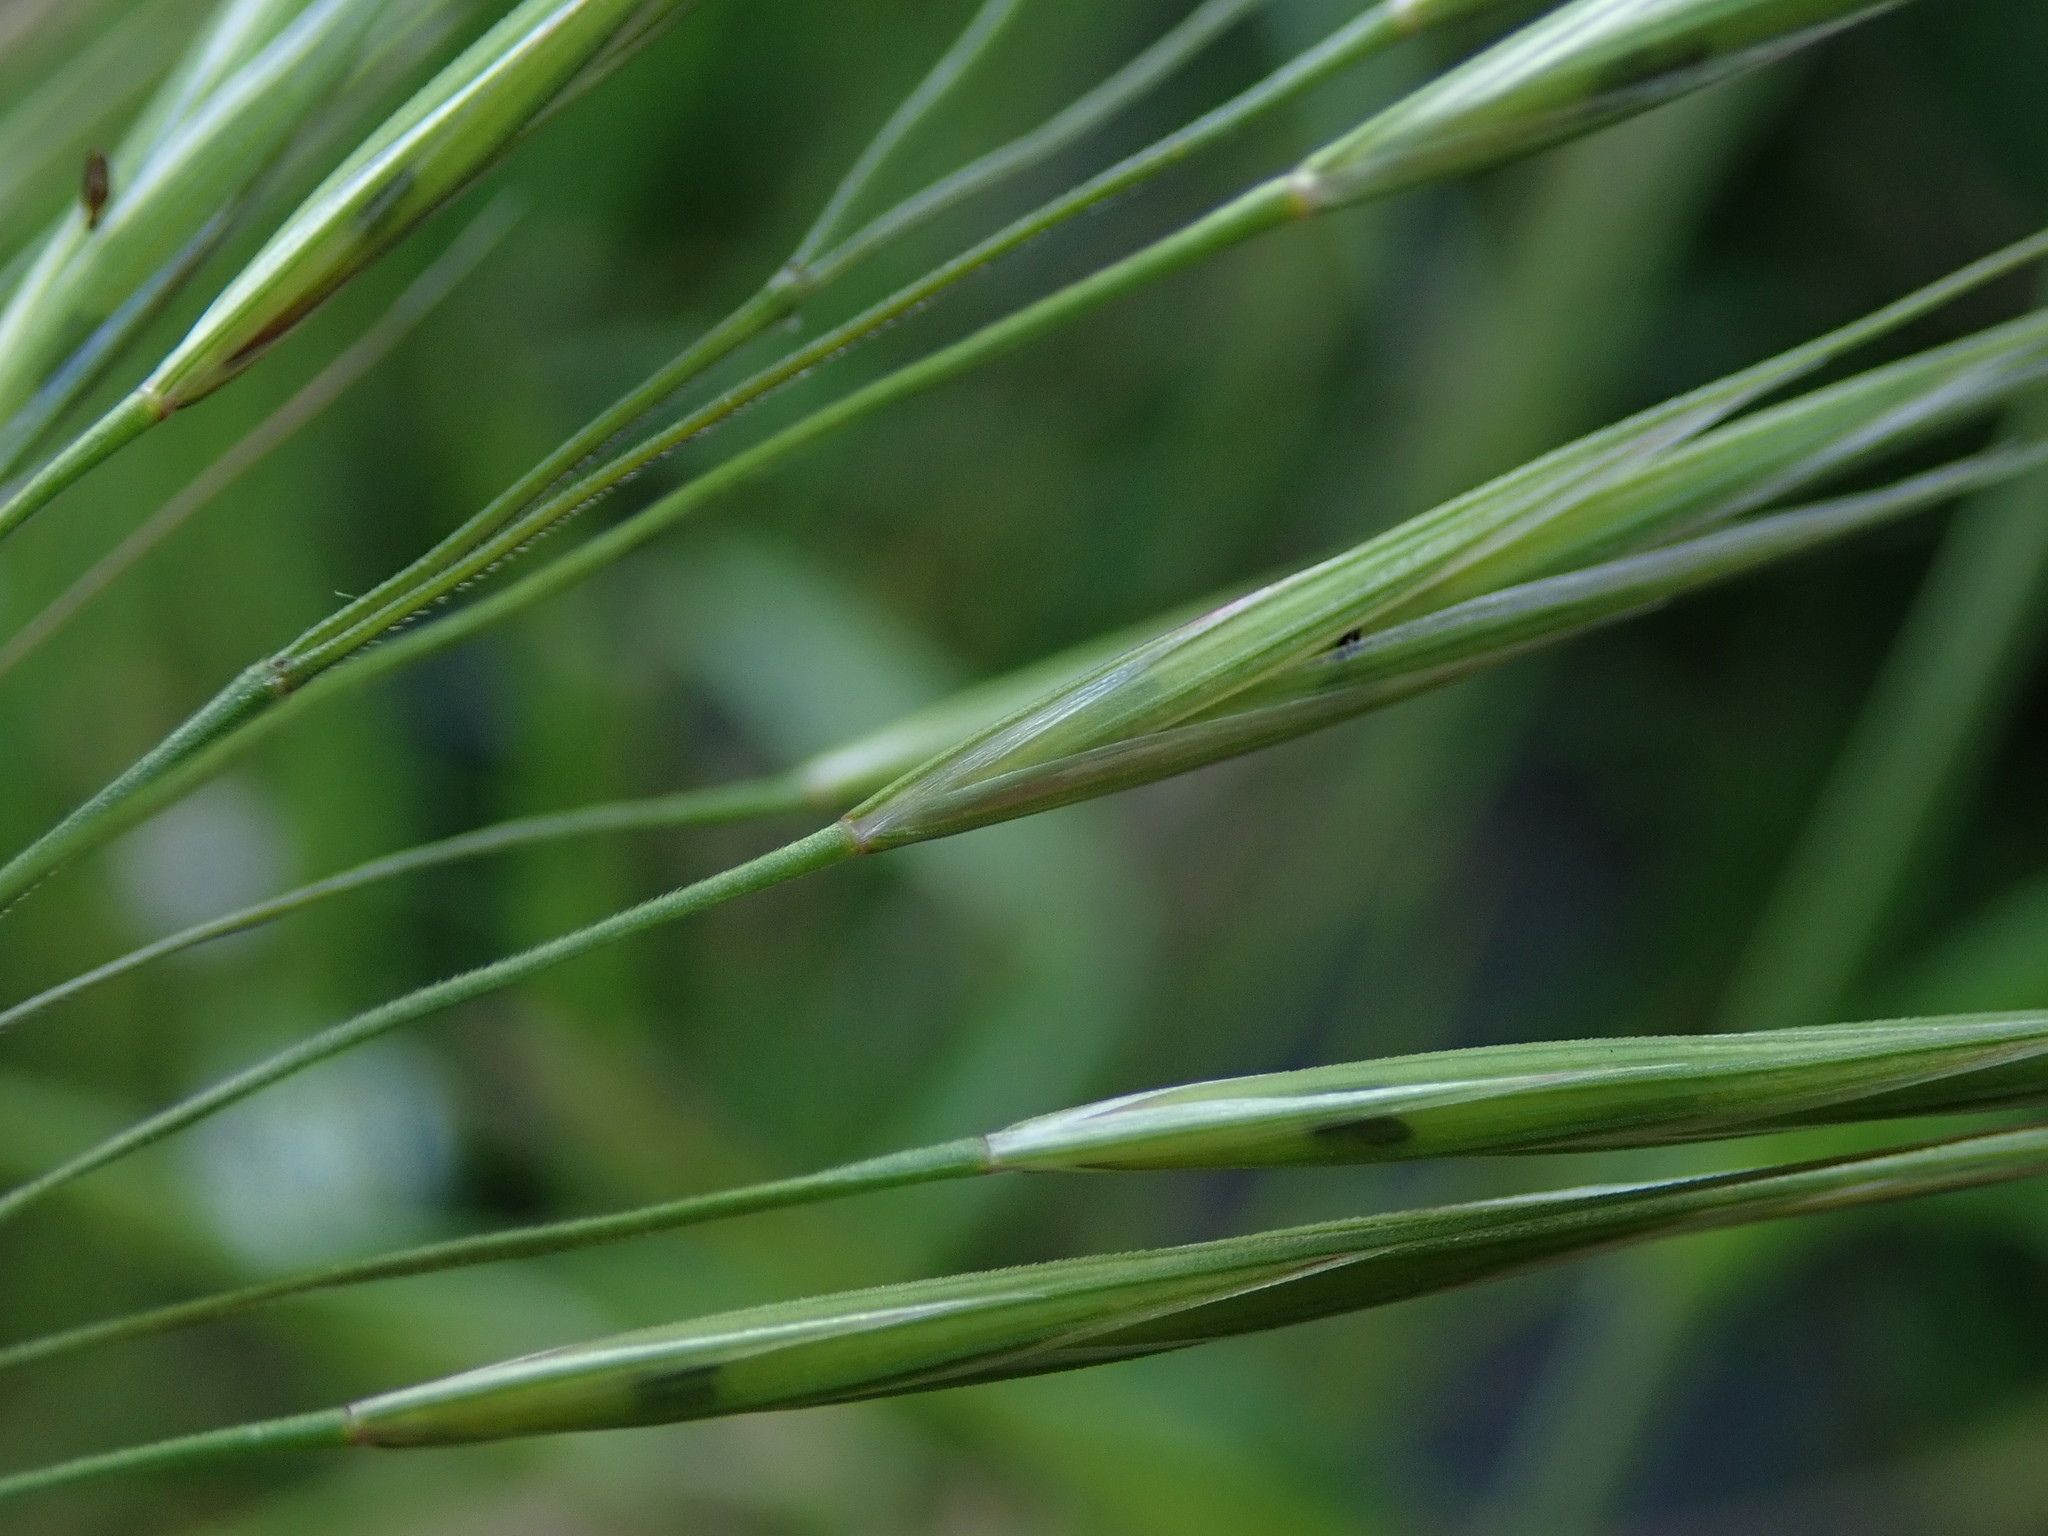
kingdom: Plantae
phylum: Tracheophyta
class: Liliopsida
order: Poales
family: Poaceae
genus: Bromus
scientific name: Bromus sterilis
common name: Poverty brome
